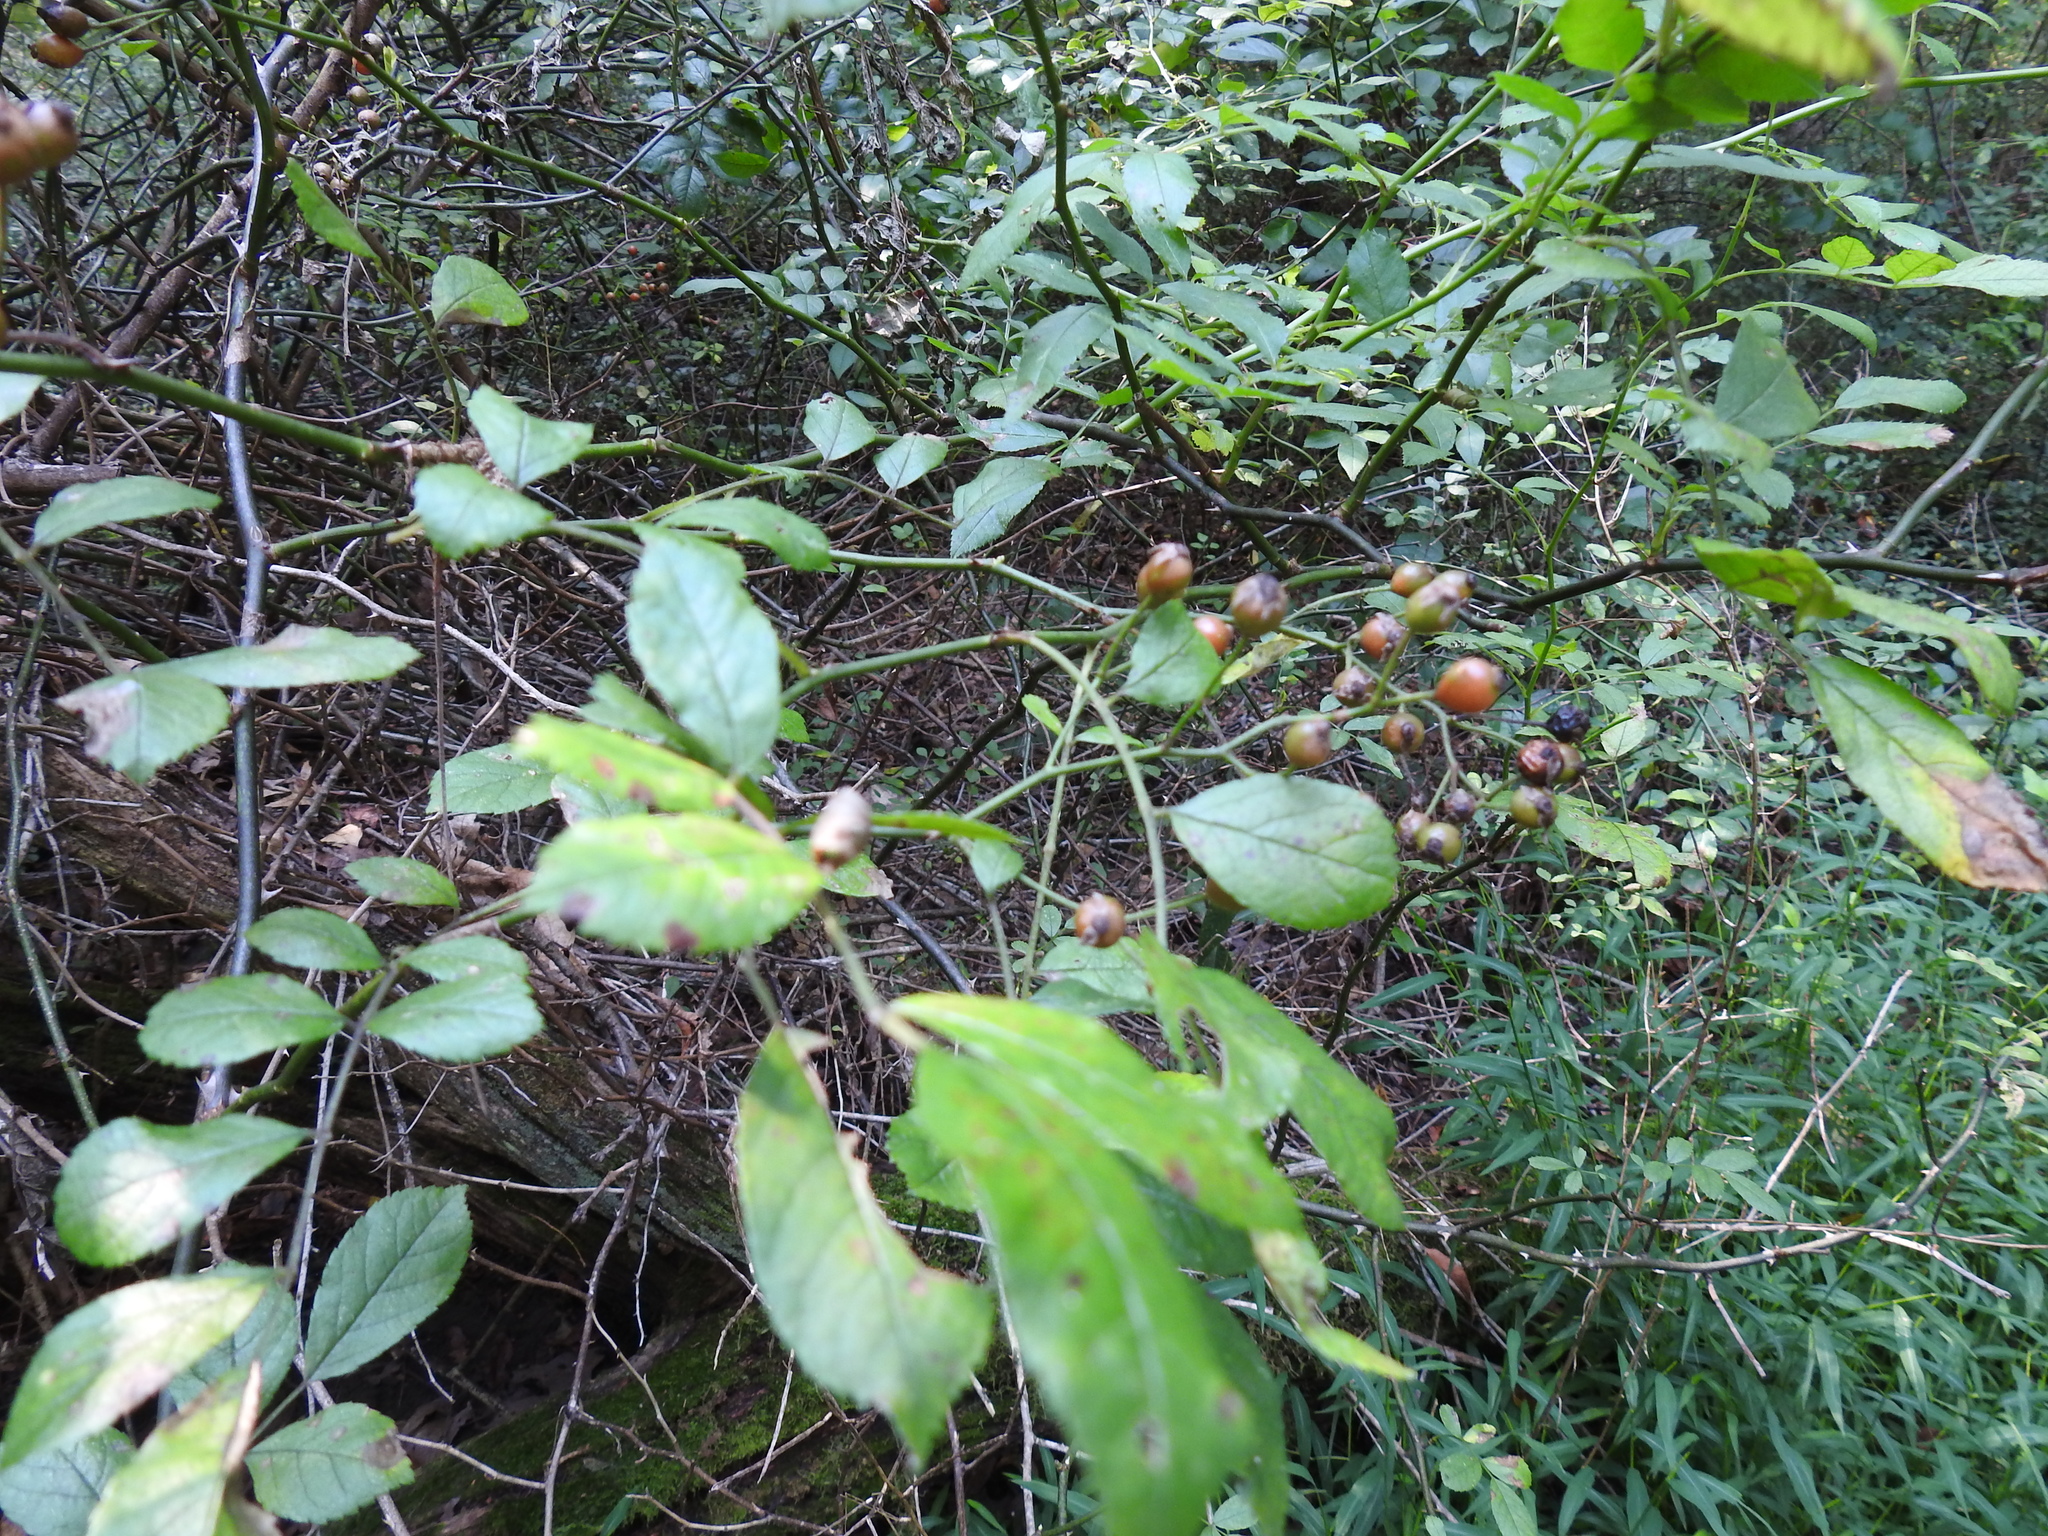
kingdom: Plantae
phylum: Tracheophyta
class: Magnoliopsida
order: Rosales
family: Rosaceae
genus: Rosa
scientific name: Rosa multiflora
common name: Multiflora rose
